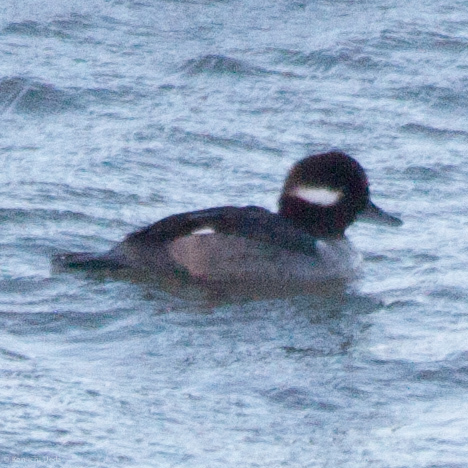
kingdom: Animalia
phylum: Chordata
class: Aves
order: Anseriformes
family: Anatidae
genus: Bucephala
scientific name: Bucephala albeola
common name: Bufflehead
